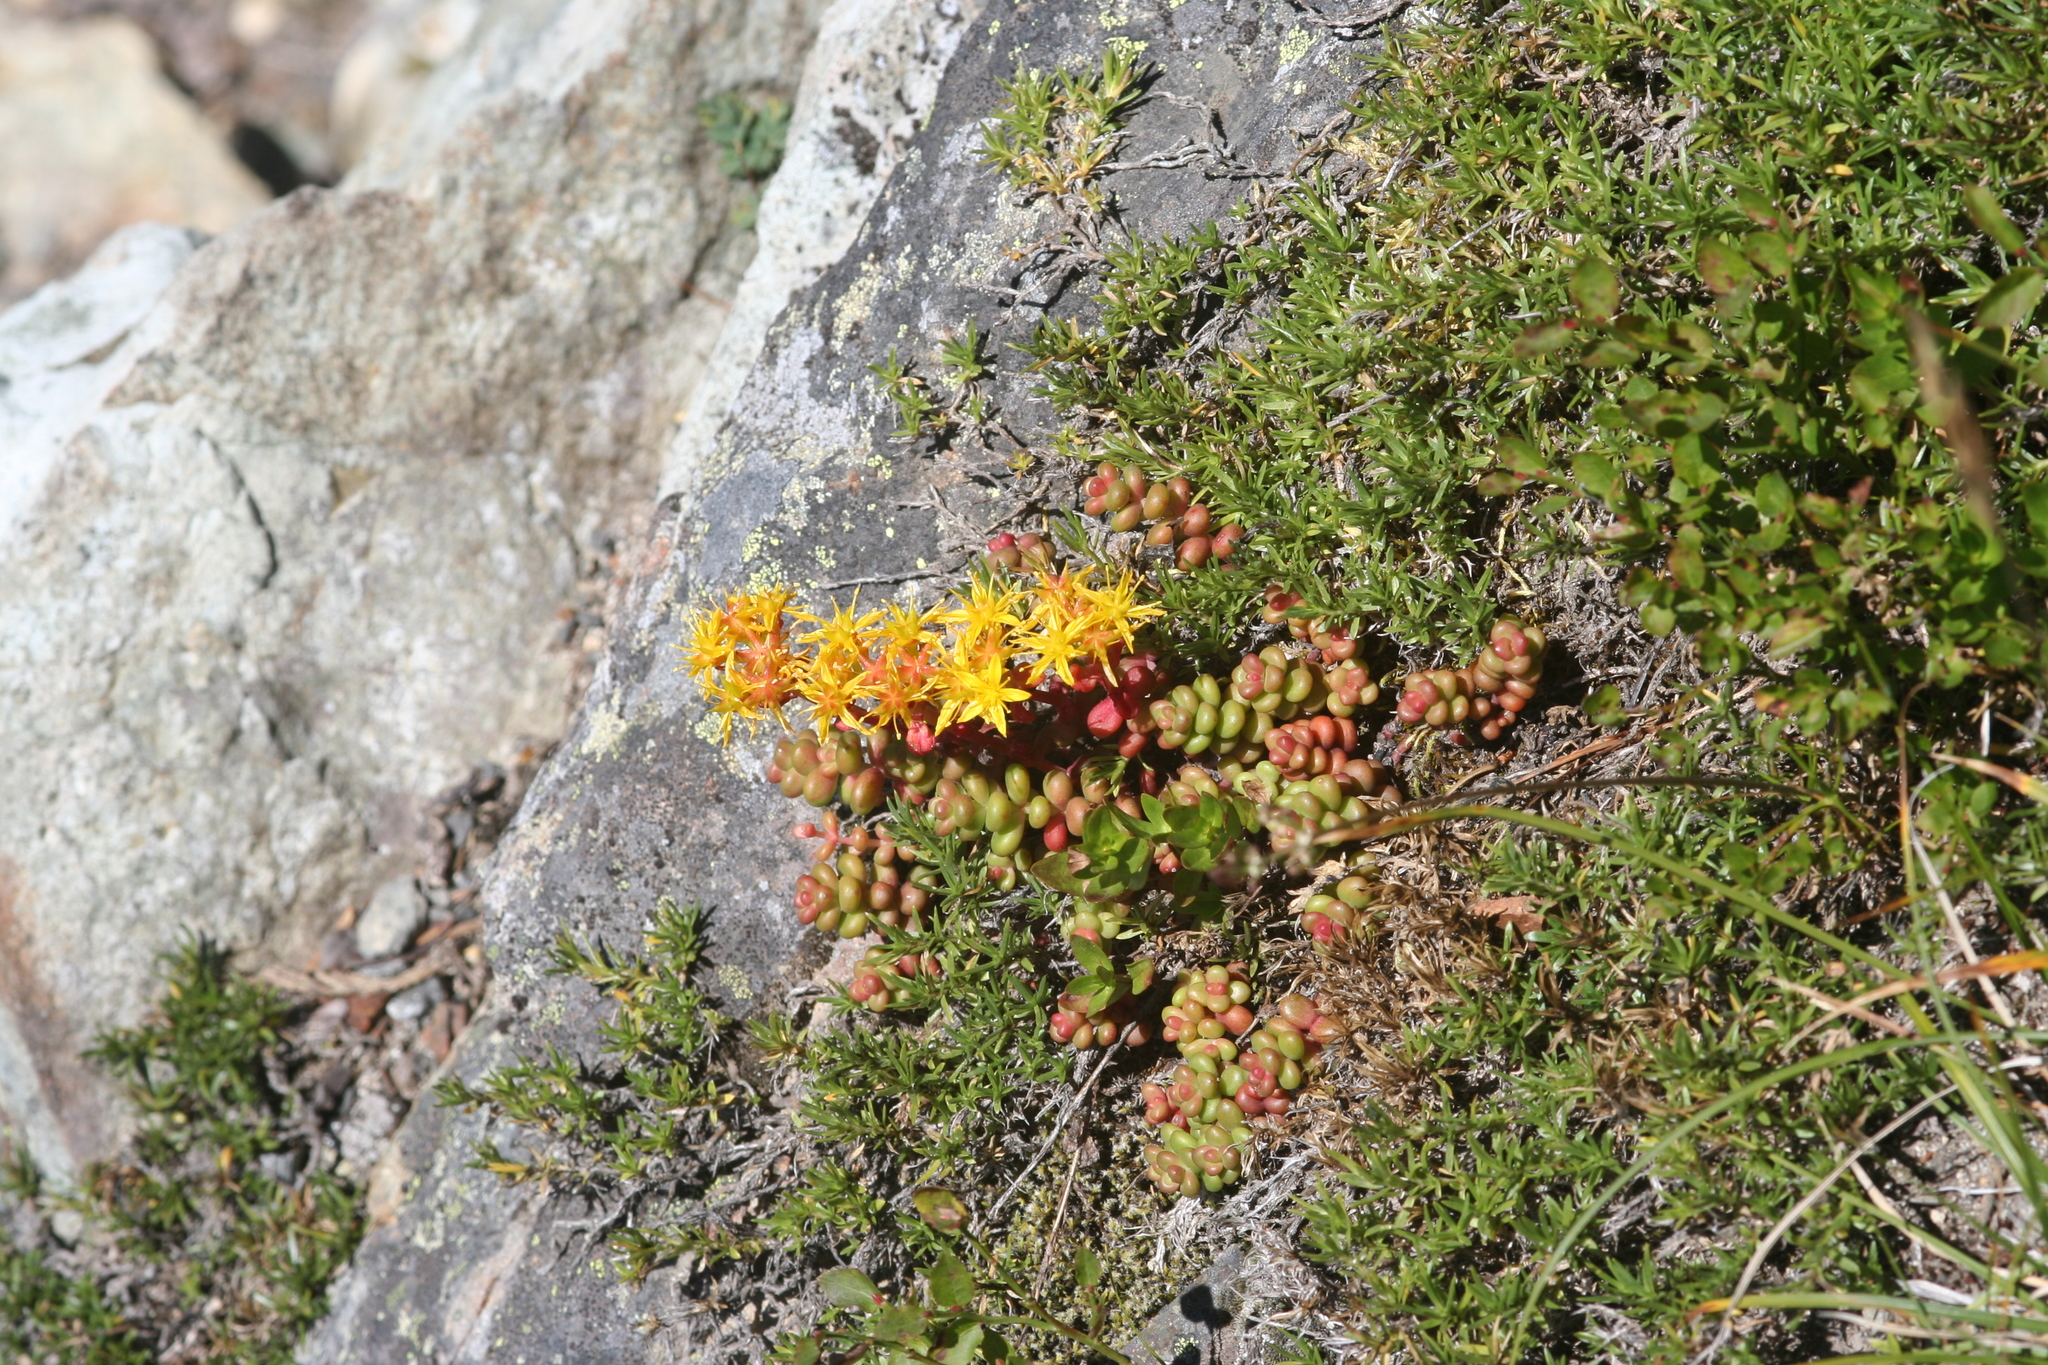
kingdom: Plantae
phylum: Tracheophyta
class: Magnoliopsida
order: Saxifragales
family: Crassulaceae
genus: Sedum
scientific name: Sedum divergens
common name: Cascade stonecrop
